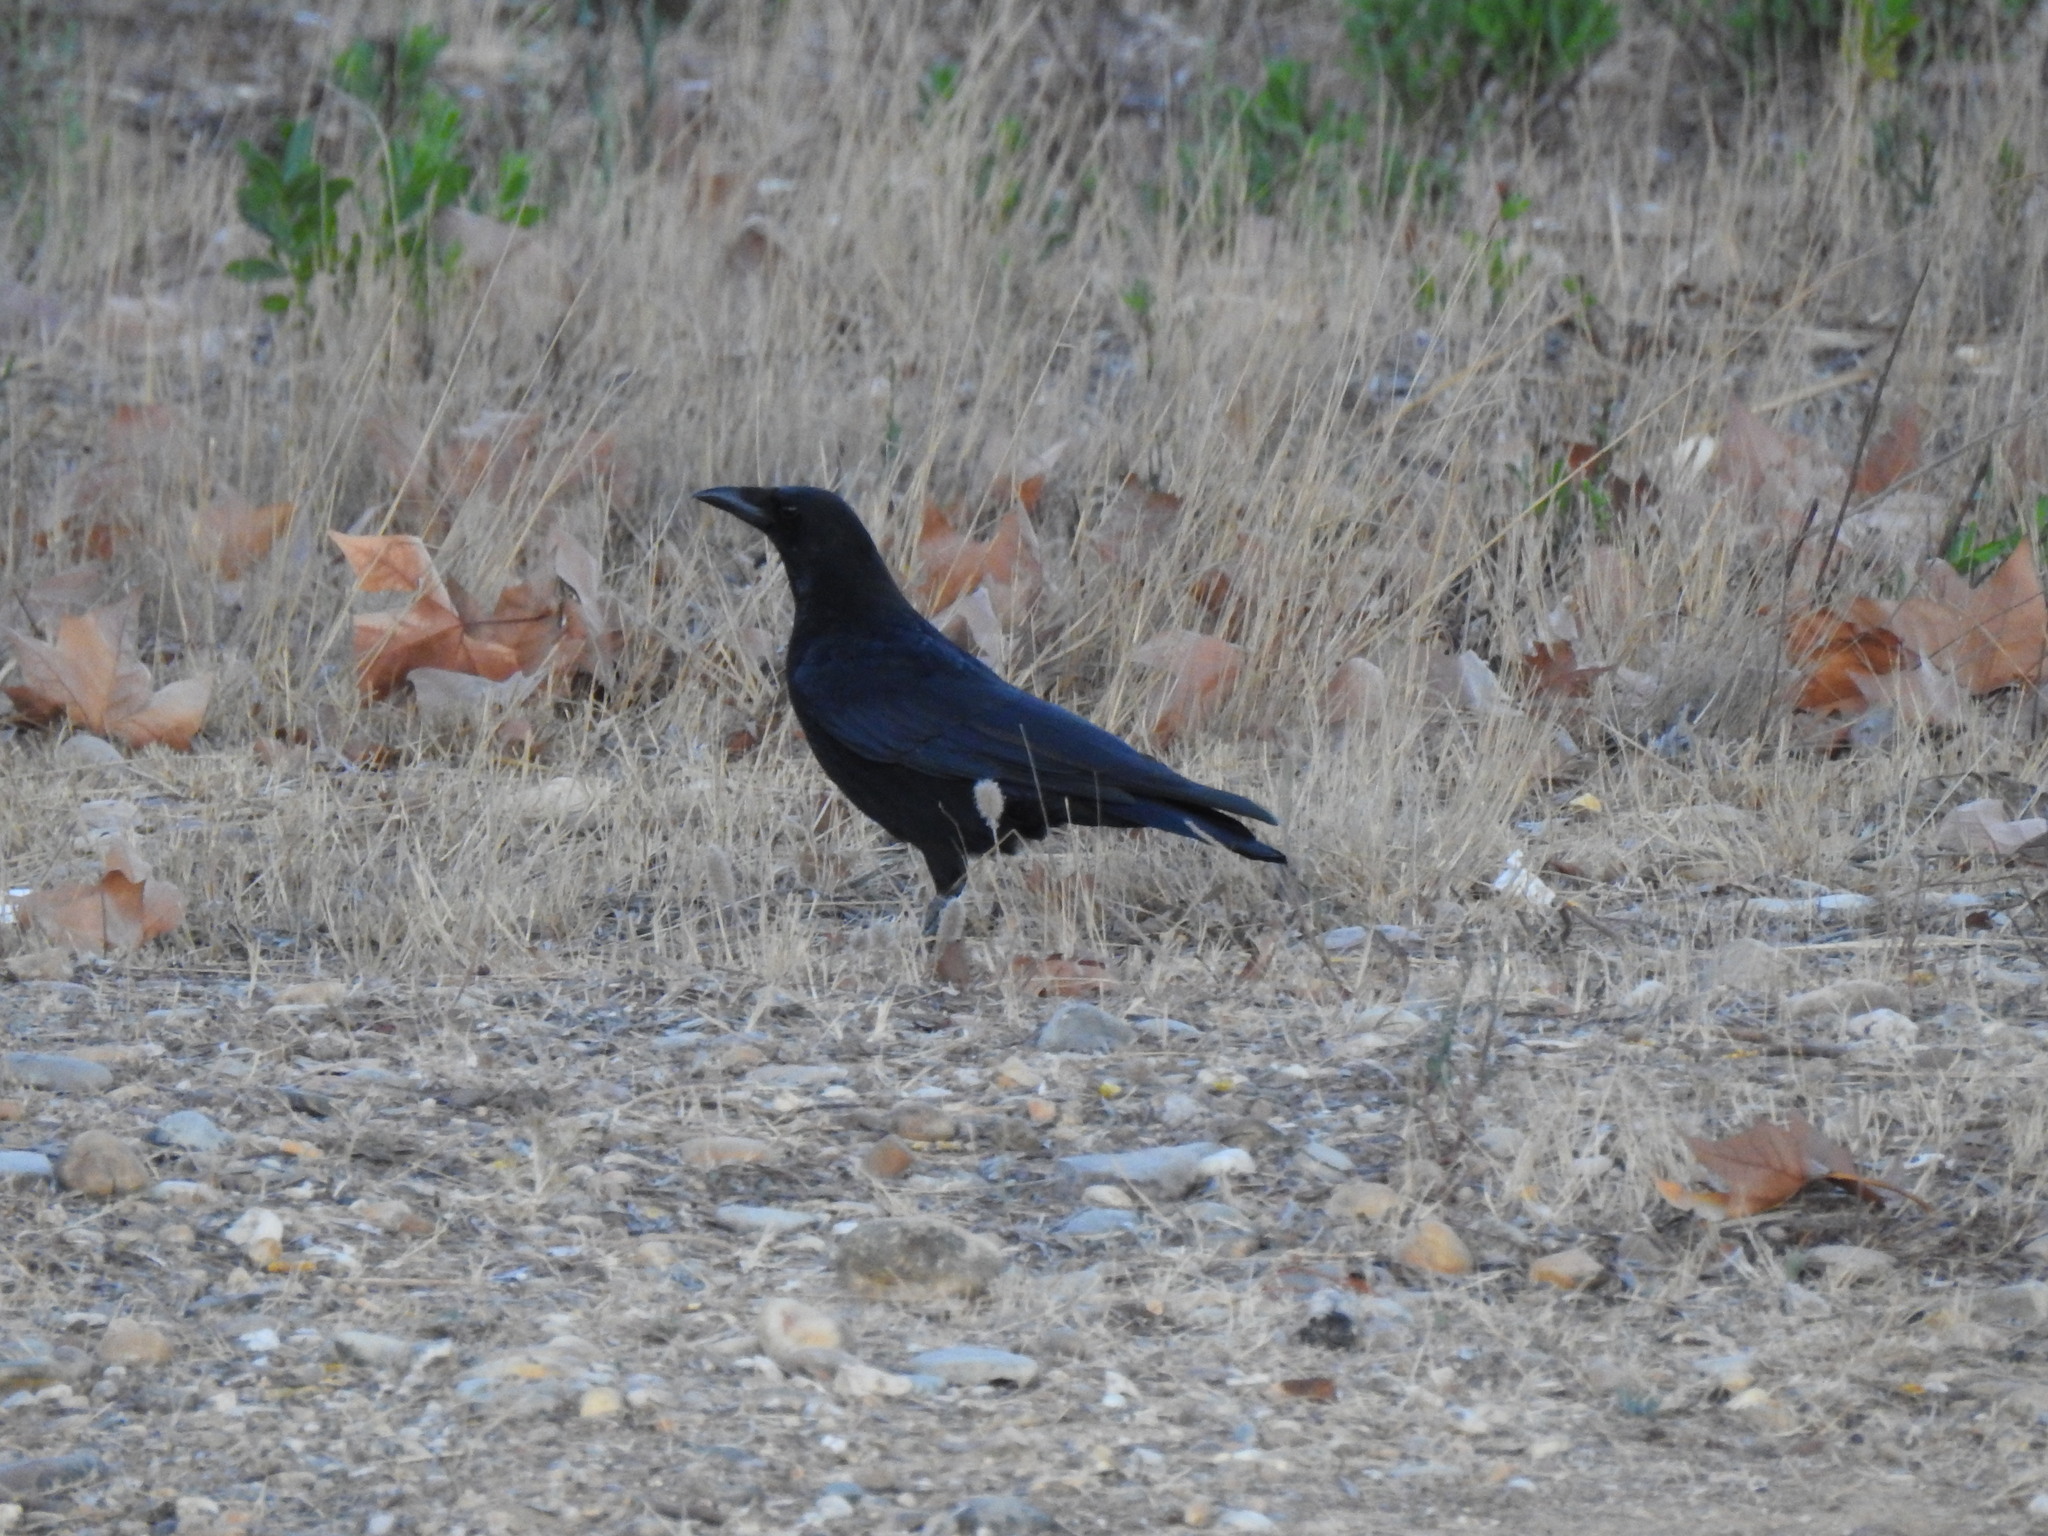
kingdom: Animalia
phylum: Chordata
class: Aves
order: Passeriformes
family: Corvidae
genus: Corvus
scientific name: Corvus corone
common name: Carrion crow
